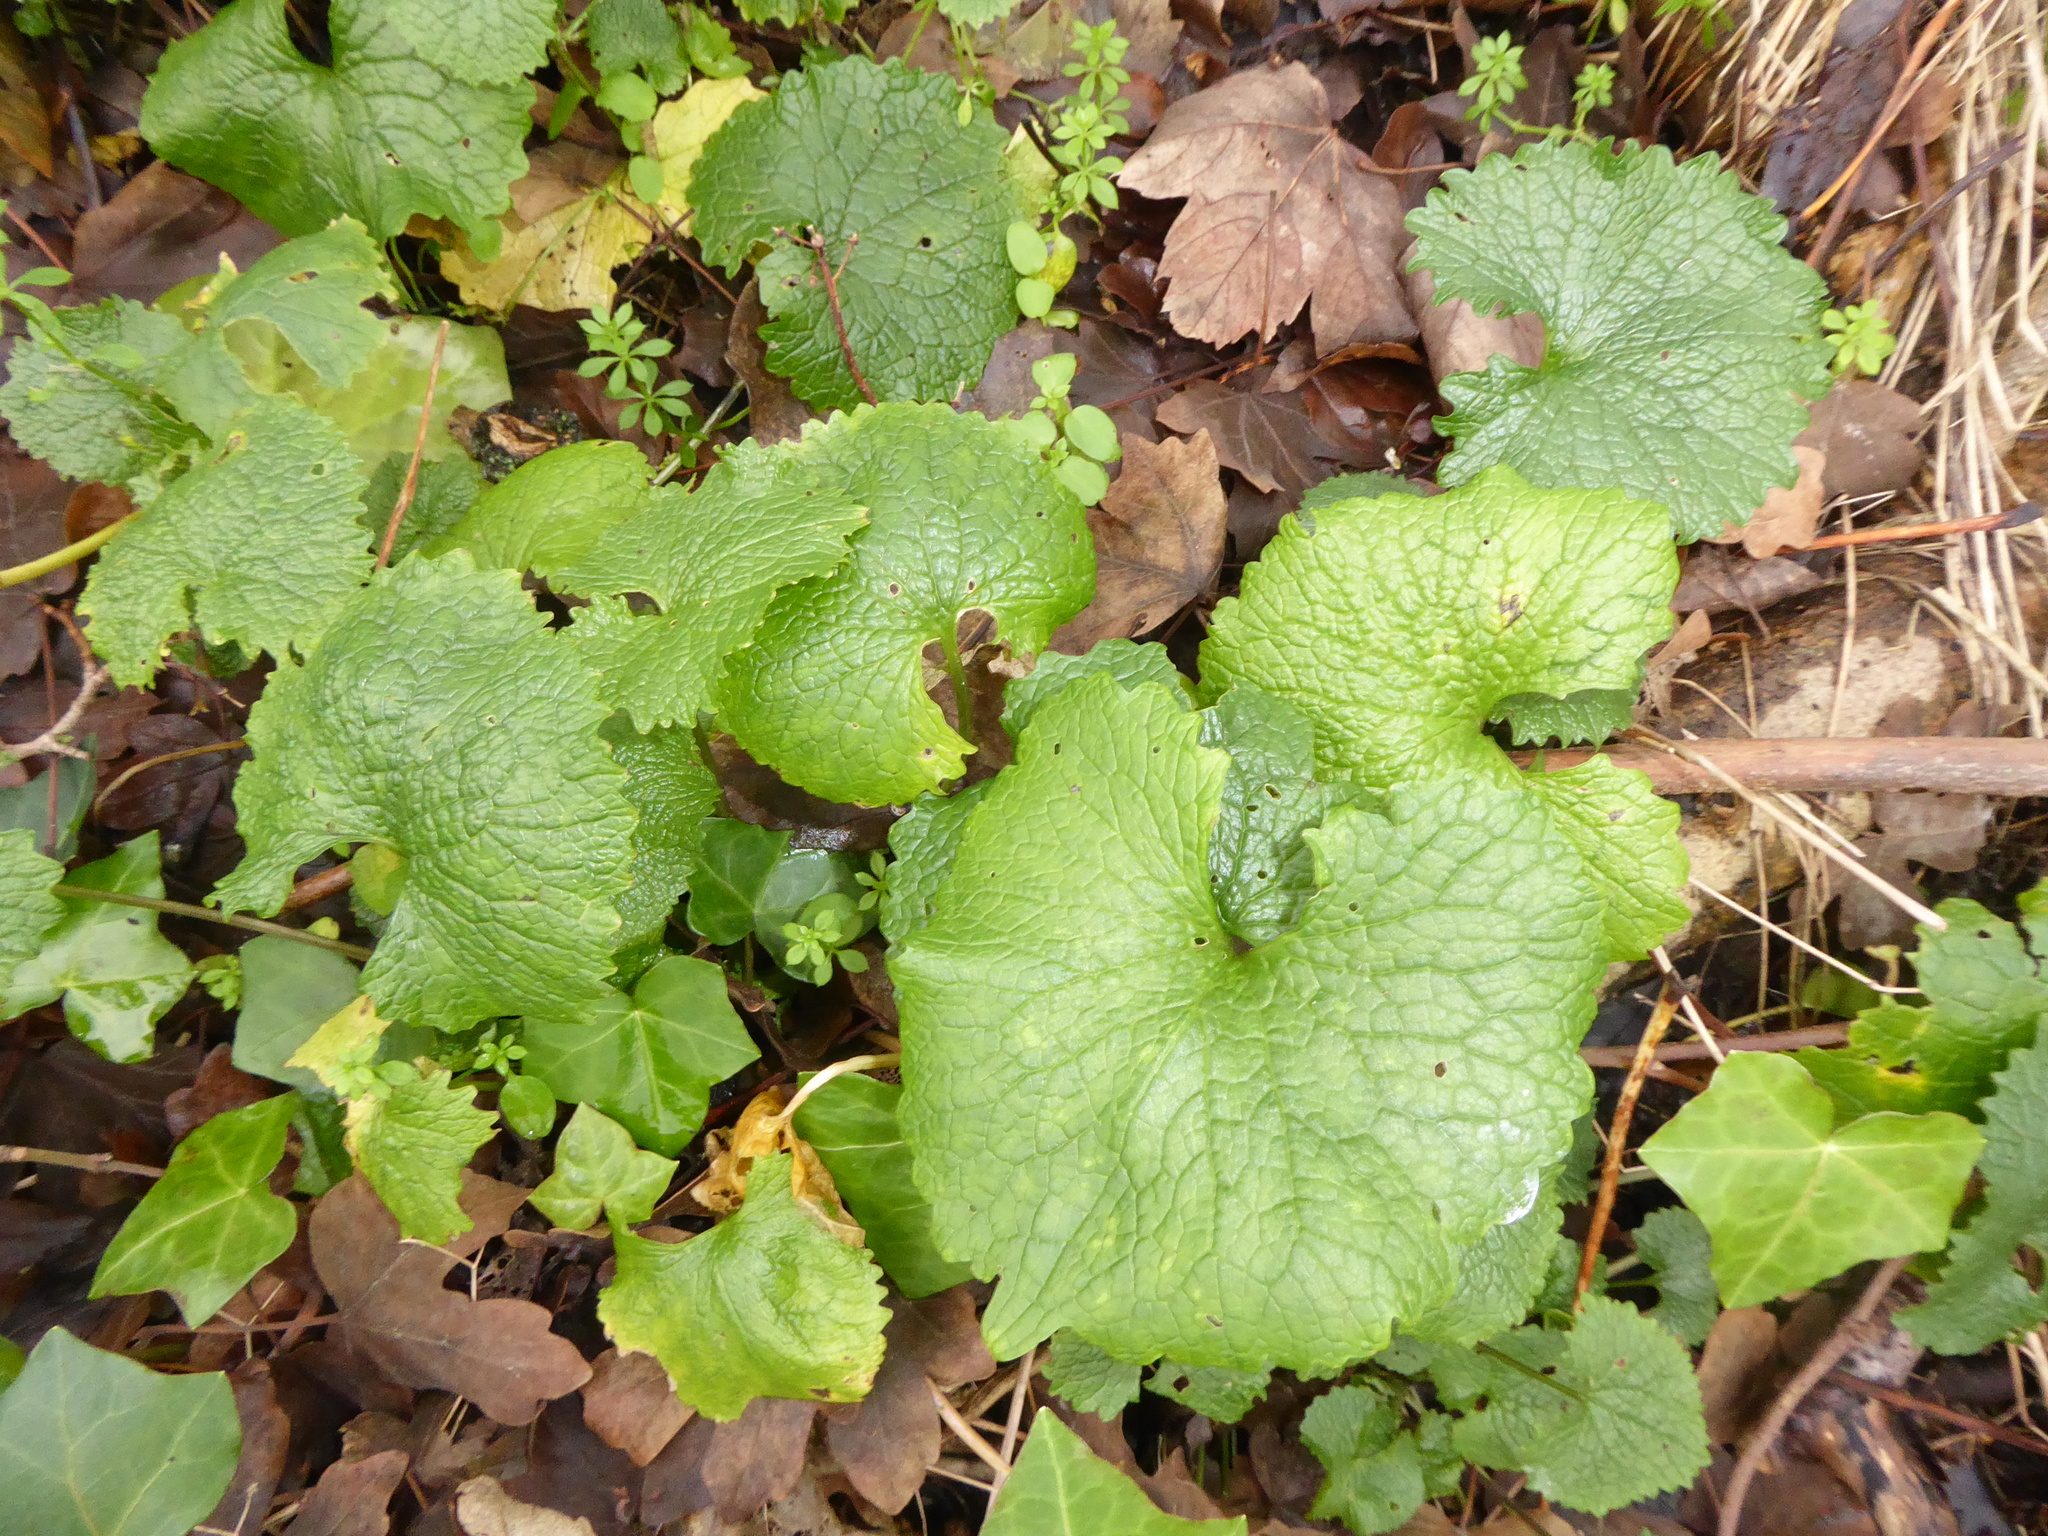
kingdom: Plantae
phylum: Tracheophyta
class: Magnoliopsida
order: Brassicales
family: Brassicaceae
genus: Alliaria
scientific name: Alliaria petiolata
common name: Garlic mustard
